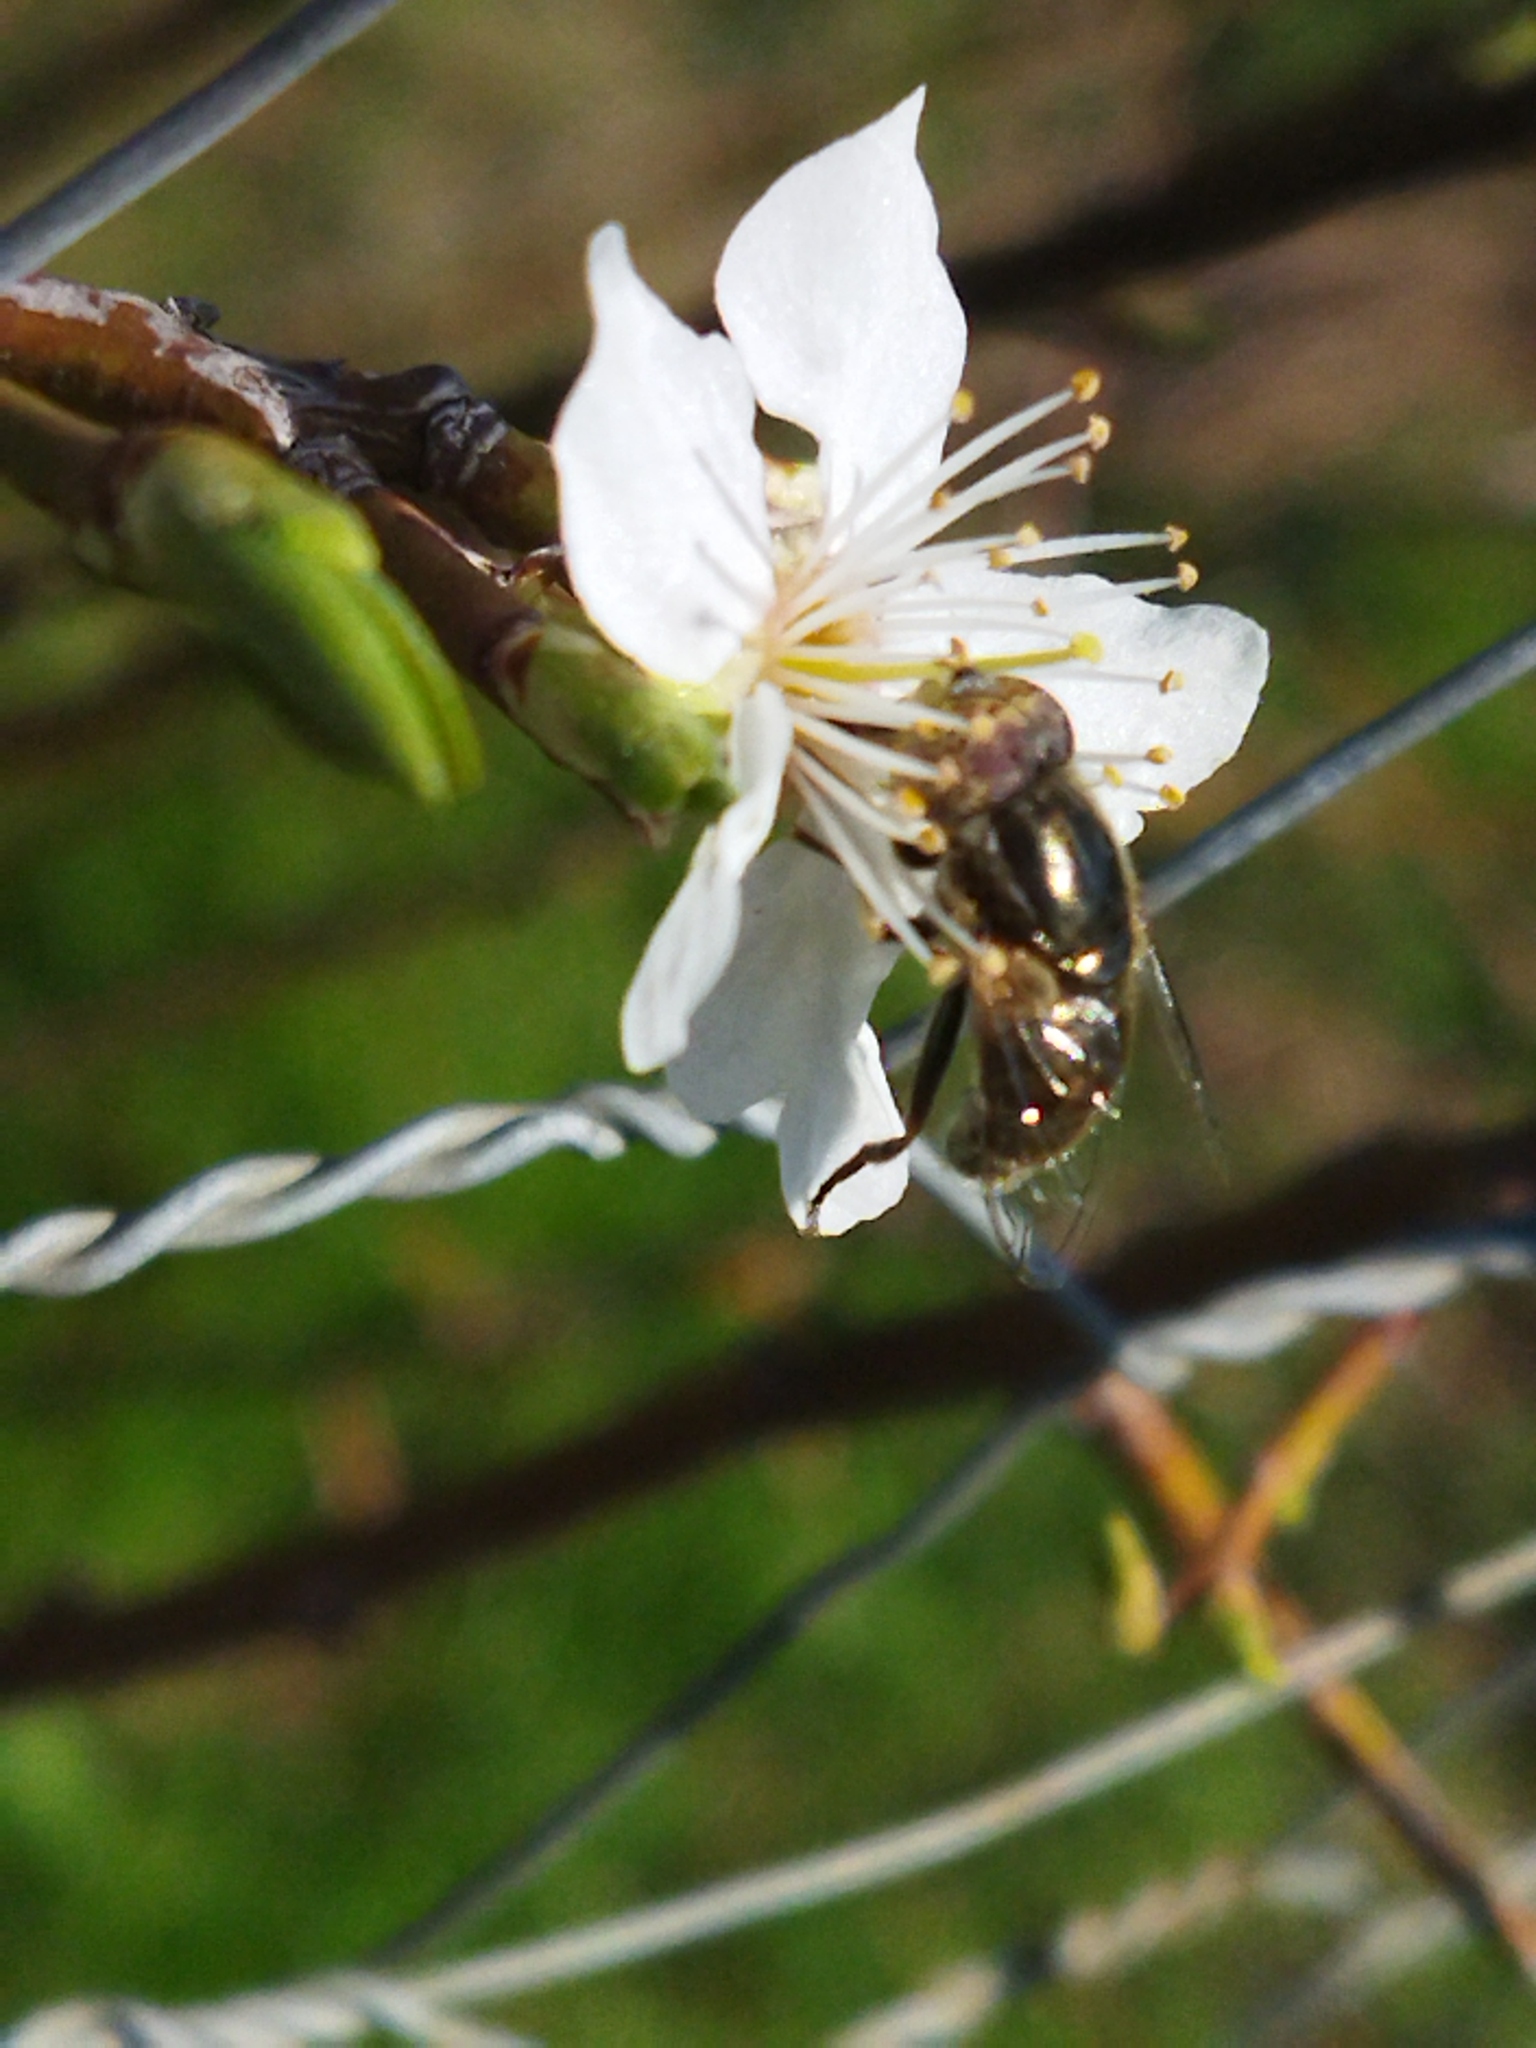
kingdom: Animalia
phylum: Arthropoda
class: Insecta
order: Diptera
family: Syrphidae
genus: Eristalinus
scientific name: Eristalinus aeneus
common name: Syrphid fly
